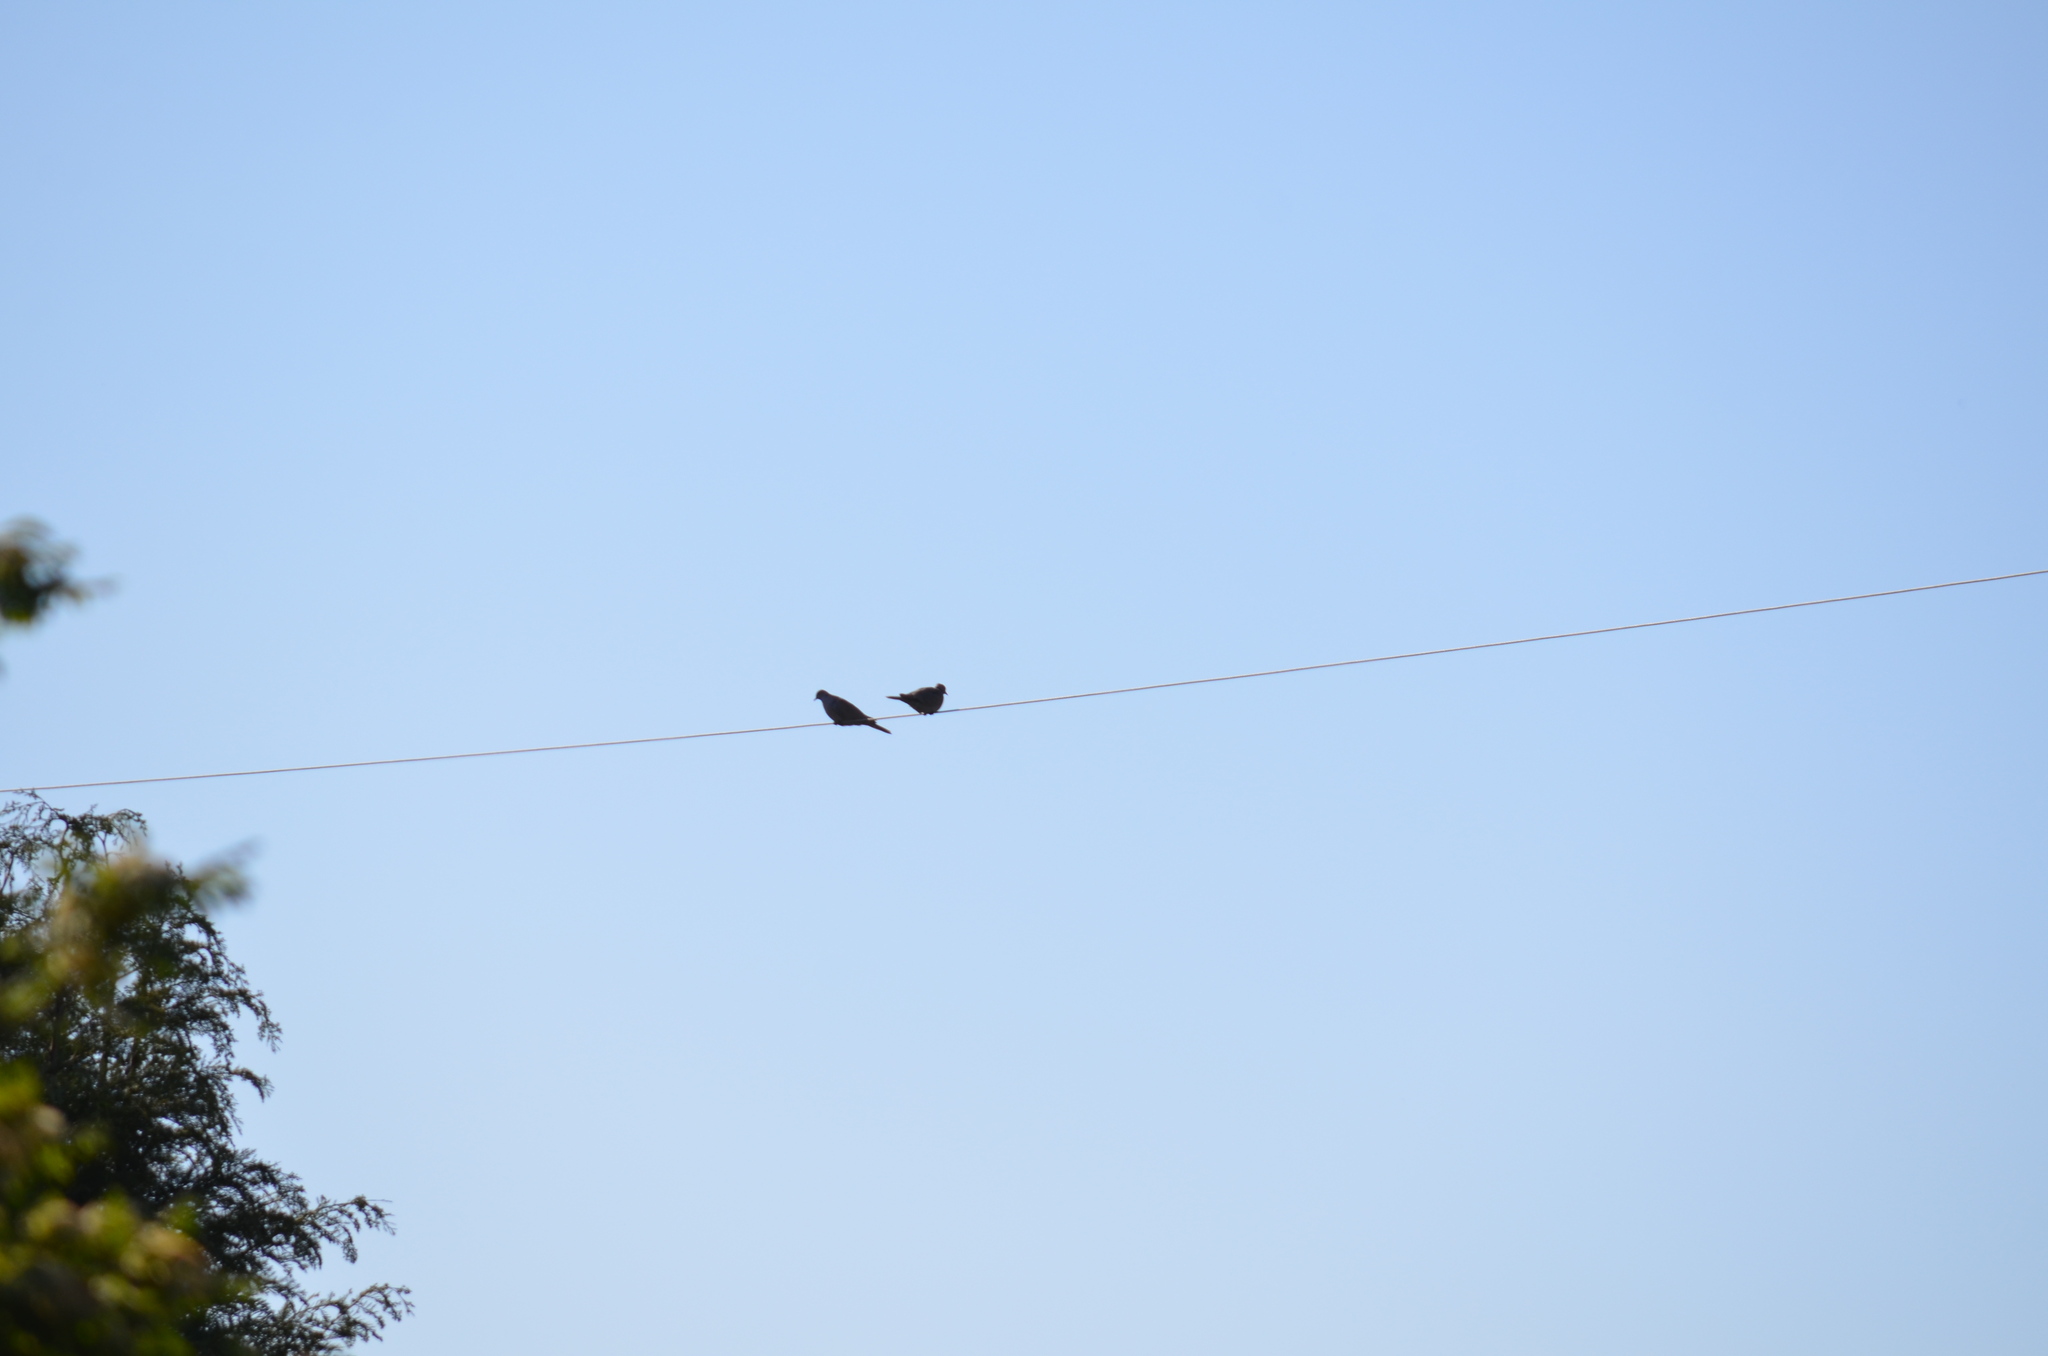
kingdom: Animalia
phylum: Chordata
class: Aves
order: Columbiformes
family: Columbidae
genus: Streptopelia
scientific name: Streptopelia decaocto
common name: Eurasian collared dove
